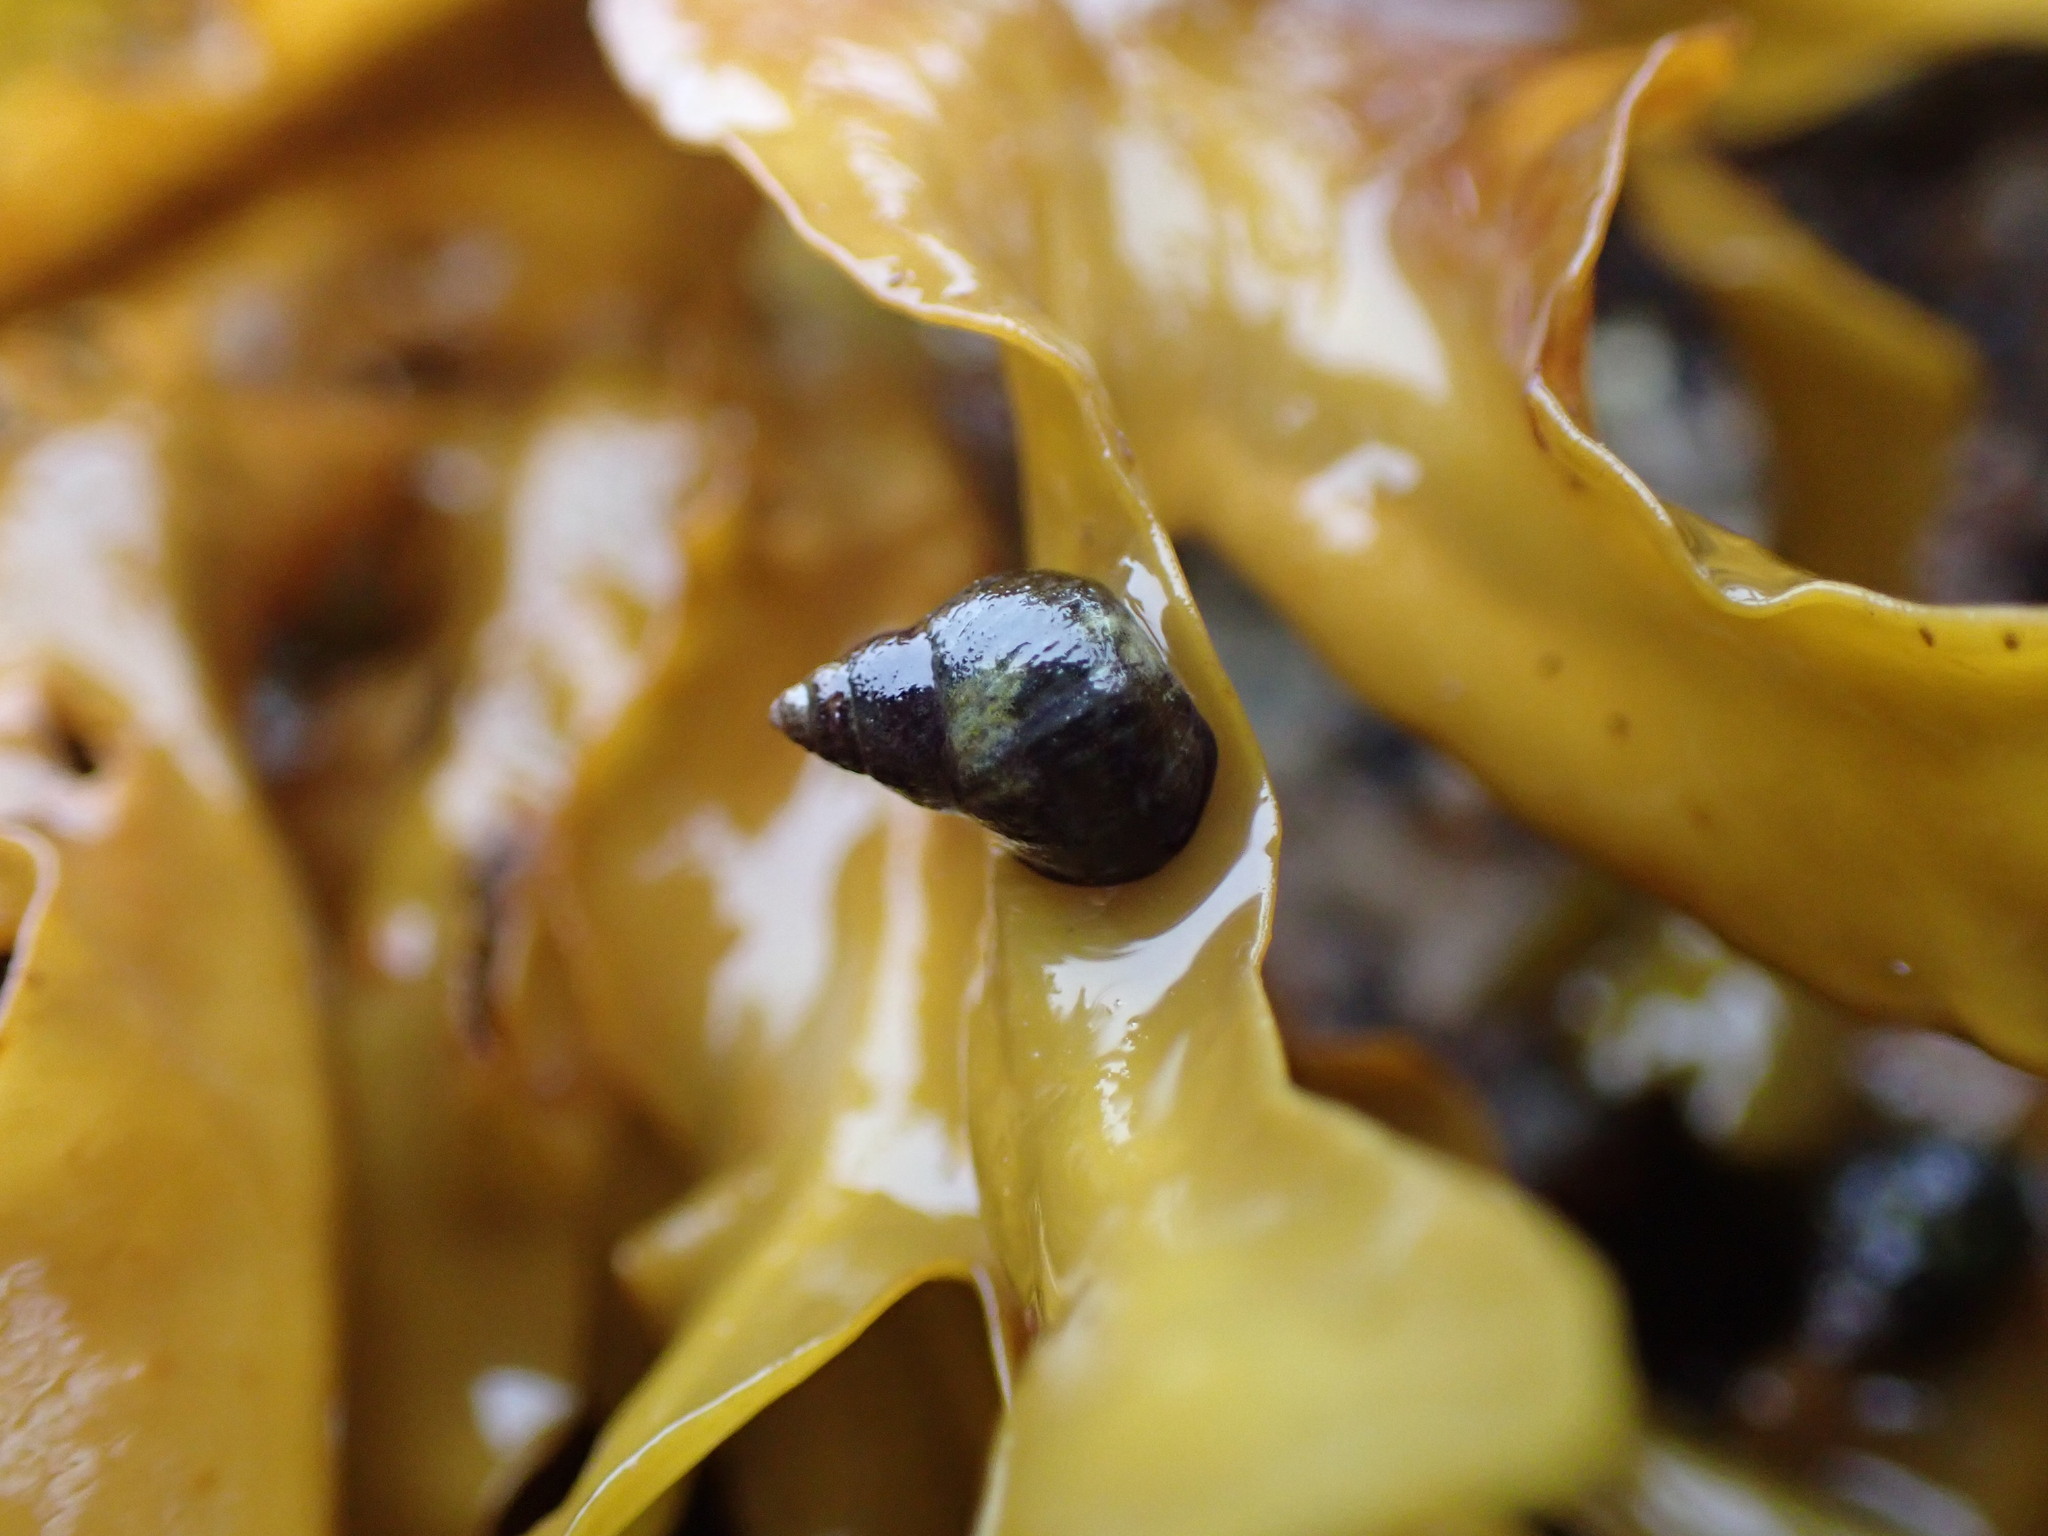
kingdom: Animalia
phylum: Mollusca
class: Gastropoda
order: Littorinimorpha
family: Littorinidae
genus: Littorina
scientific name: Littorina scutulata
